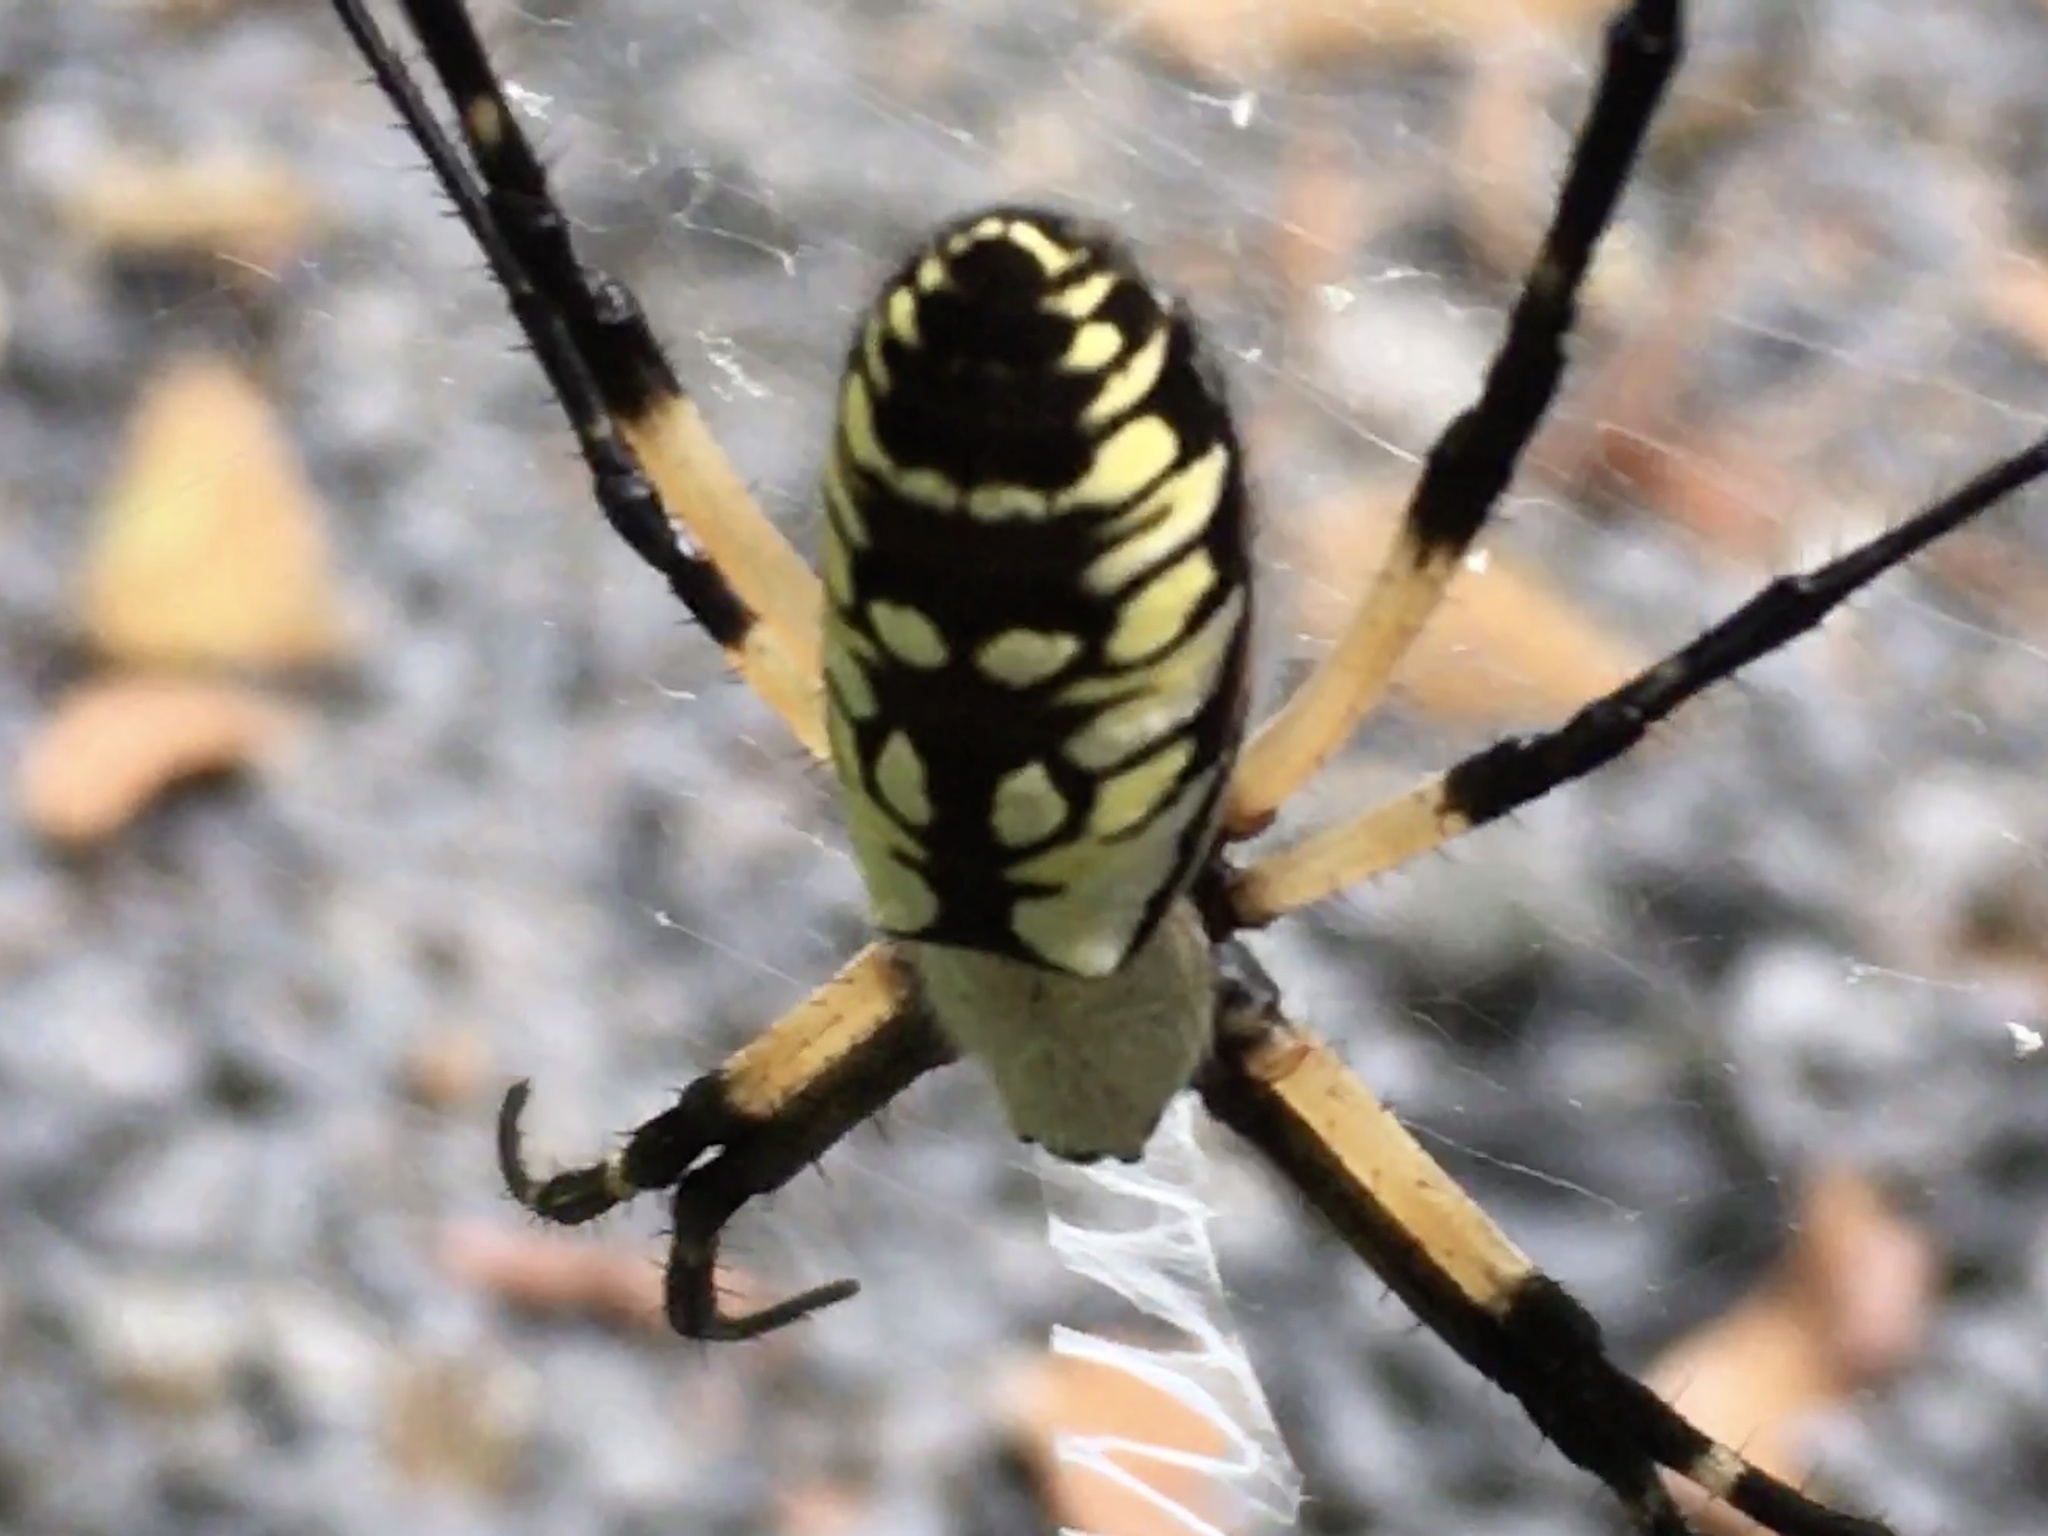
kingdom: Animalia
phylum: Arthropoda
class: Arachnida
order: Araneae
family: Araneidae
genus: Argiope
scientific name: Argiope aurantia
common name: Orb weavers
